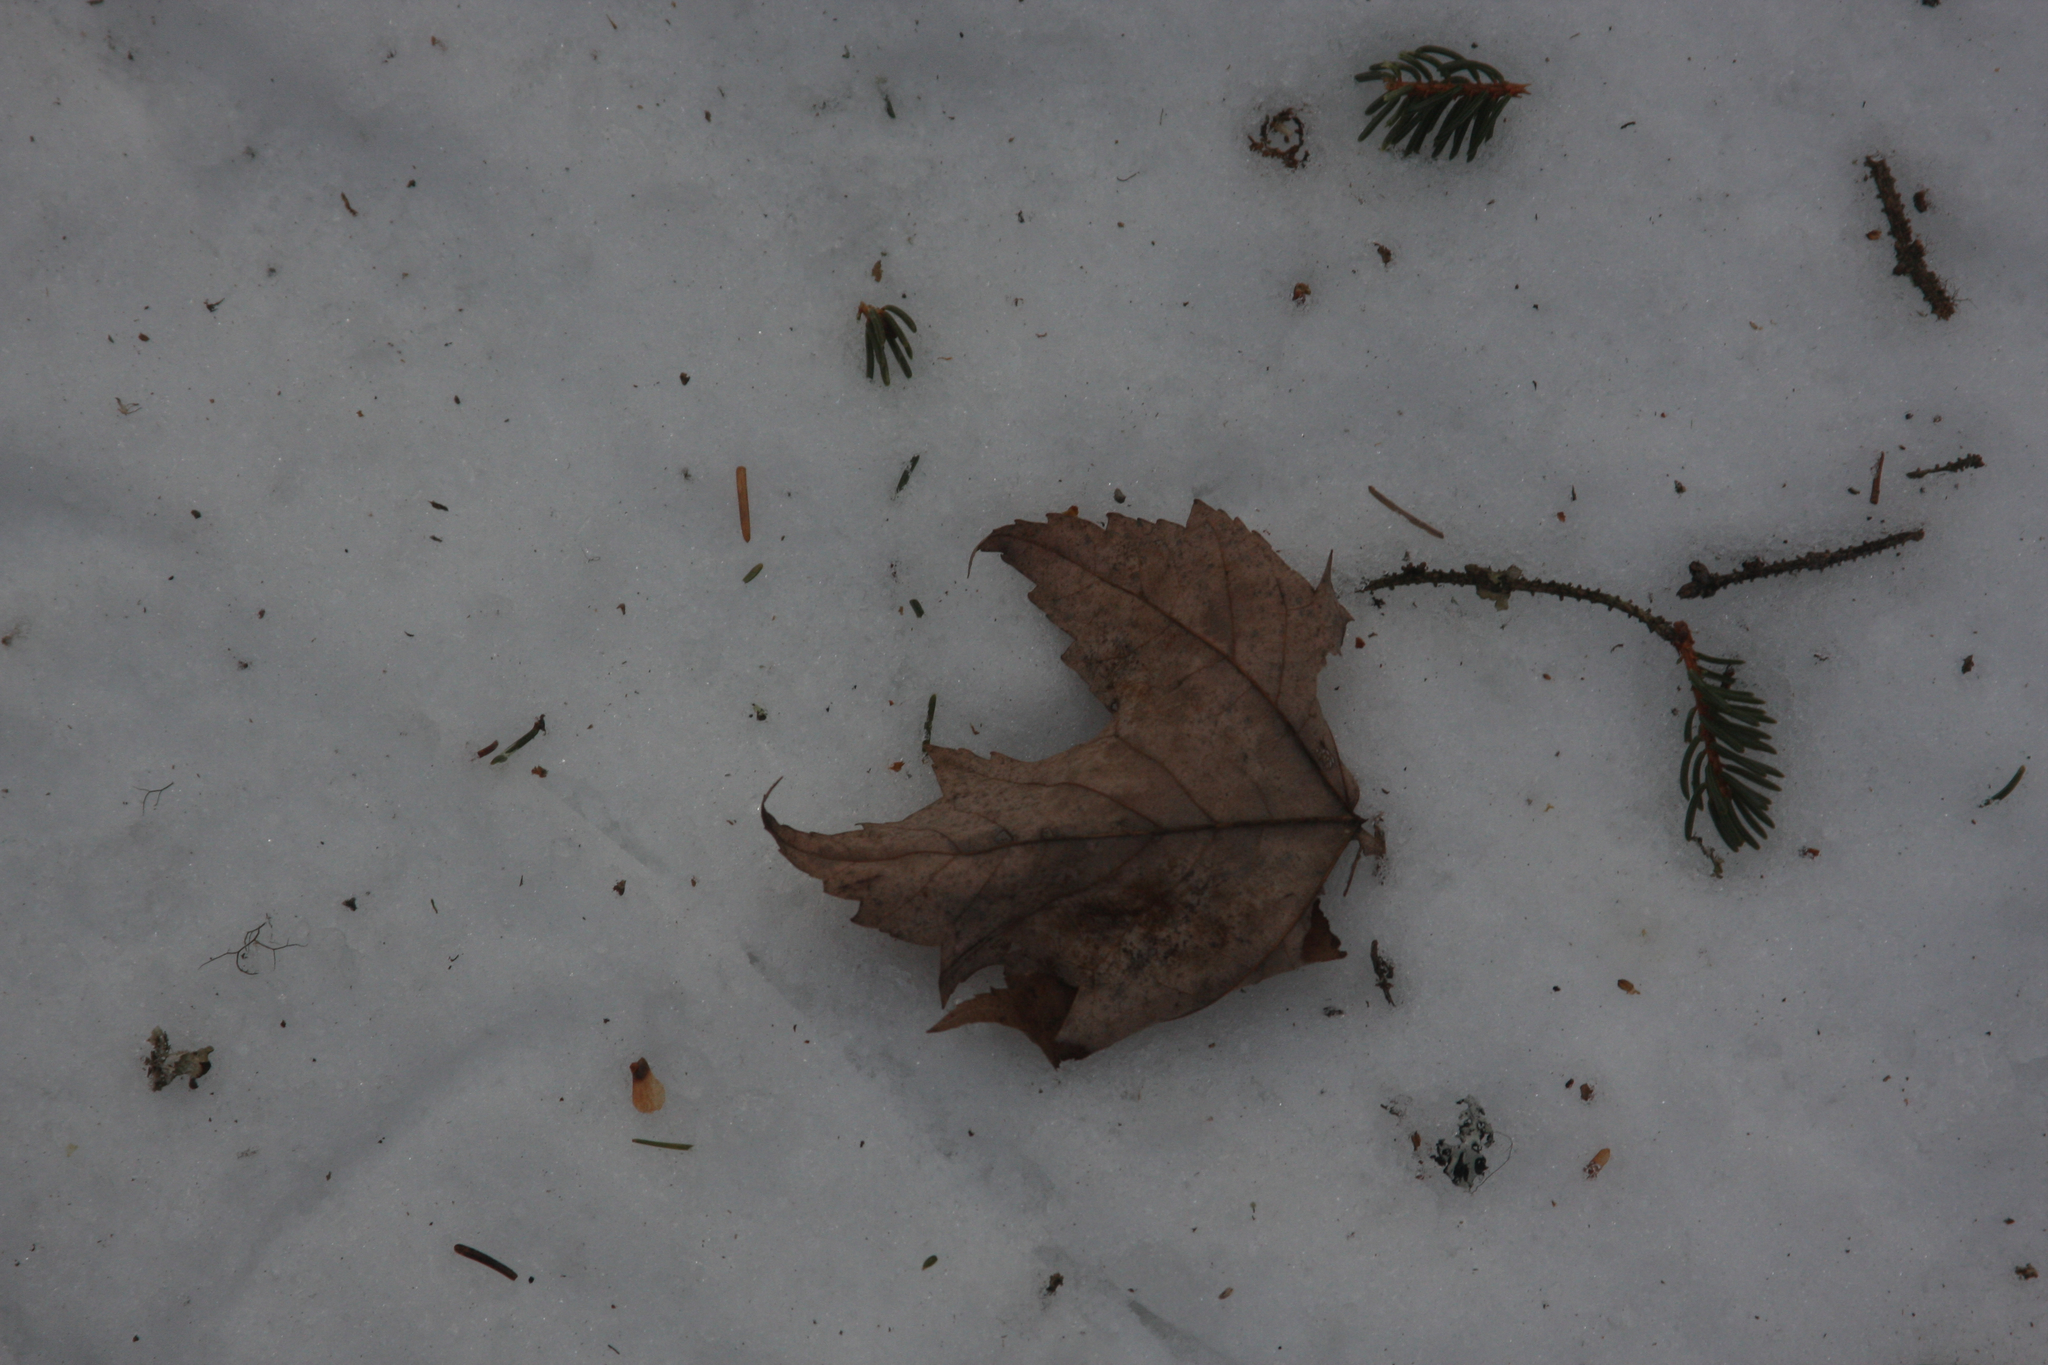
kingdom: Plantae
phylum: Tracheophyta
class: Magnoliopsida
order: Sapindales
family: Sapindaceae
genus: Acer
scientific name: Acer rubrum
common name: Red maple
